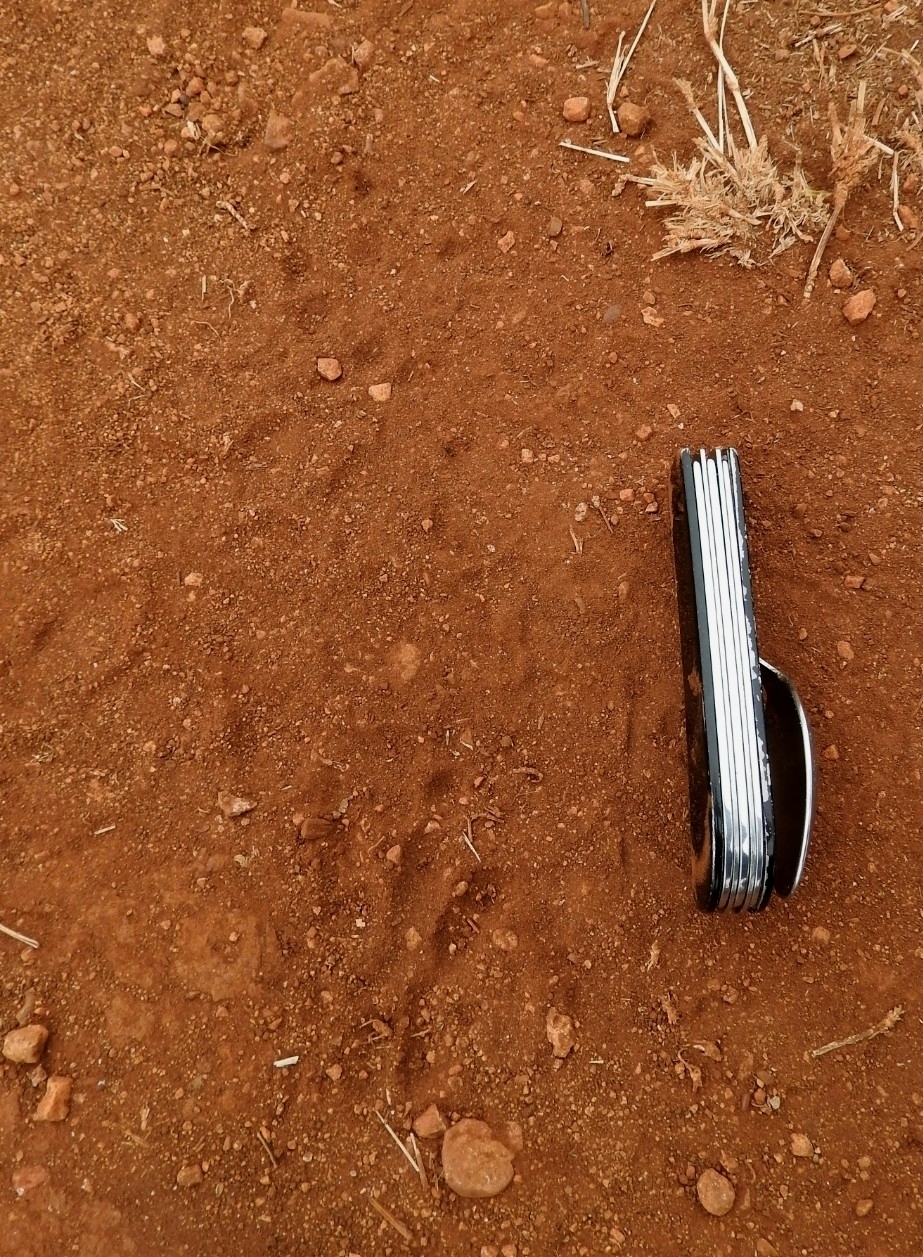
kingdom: Animalia
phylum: Chordata
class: Mammalia
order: Cingulata
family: Dasypodidae
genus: Dasypus
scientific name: Dasypus novemcinctus
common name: Nine-banded armadillo
